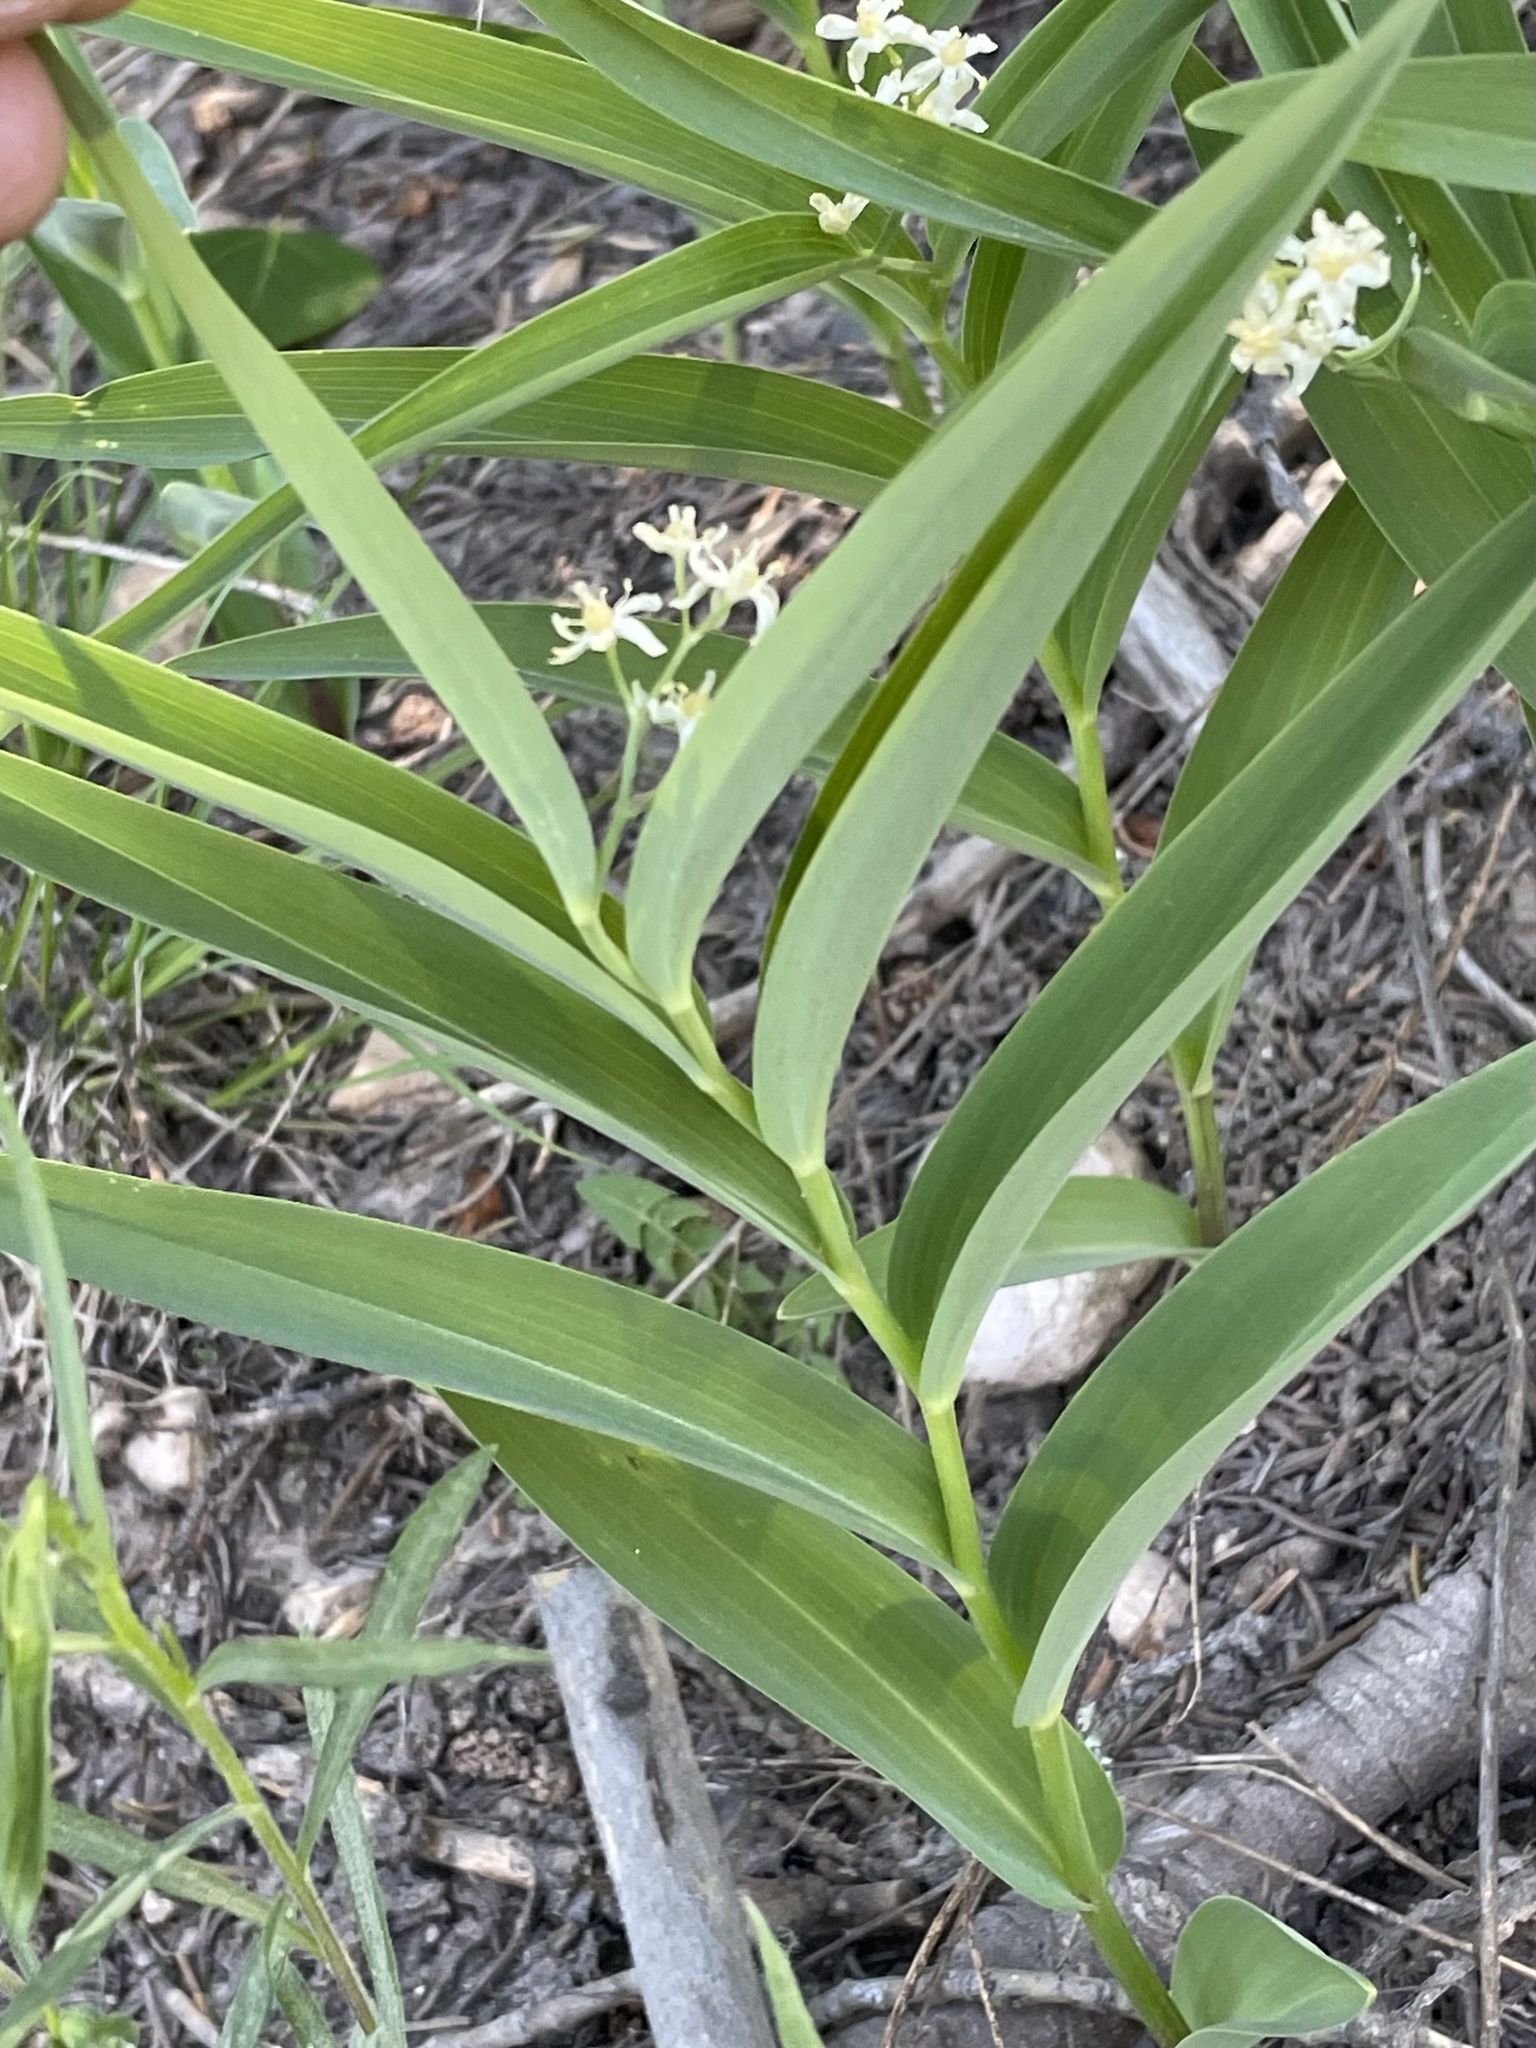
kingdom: Plantae
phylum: Tracheophyta
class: Liliopsida
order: Asparagales
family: Asparagaceae
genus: Maianthemum
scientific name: Maianthemum stellatum
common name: Little false solomon's seal
